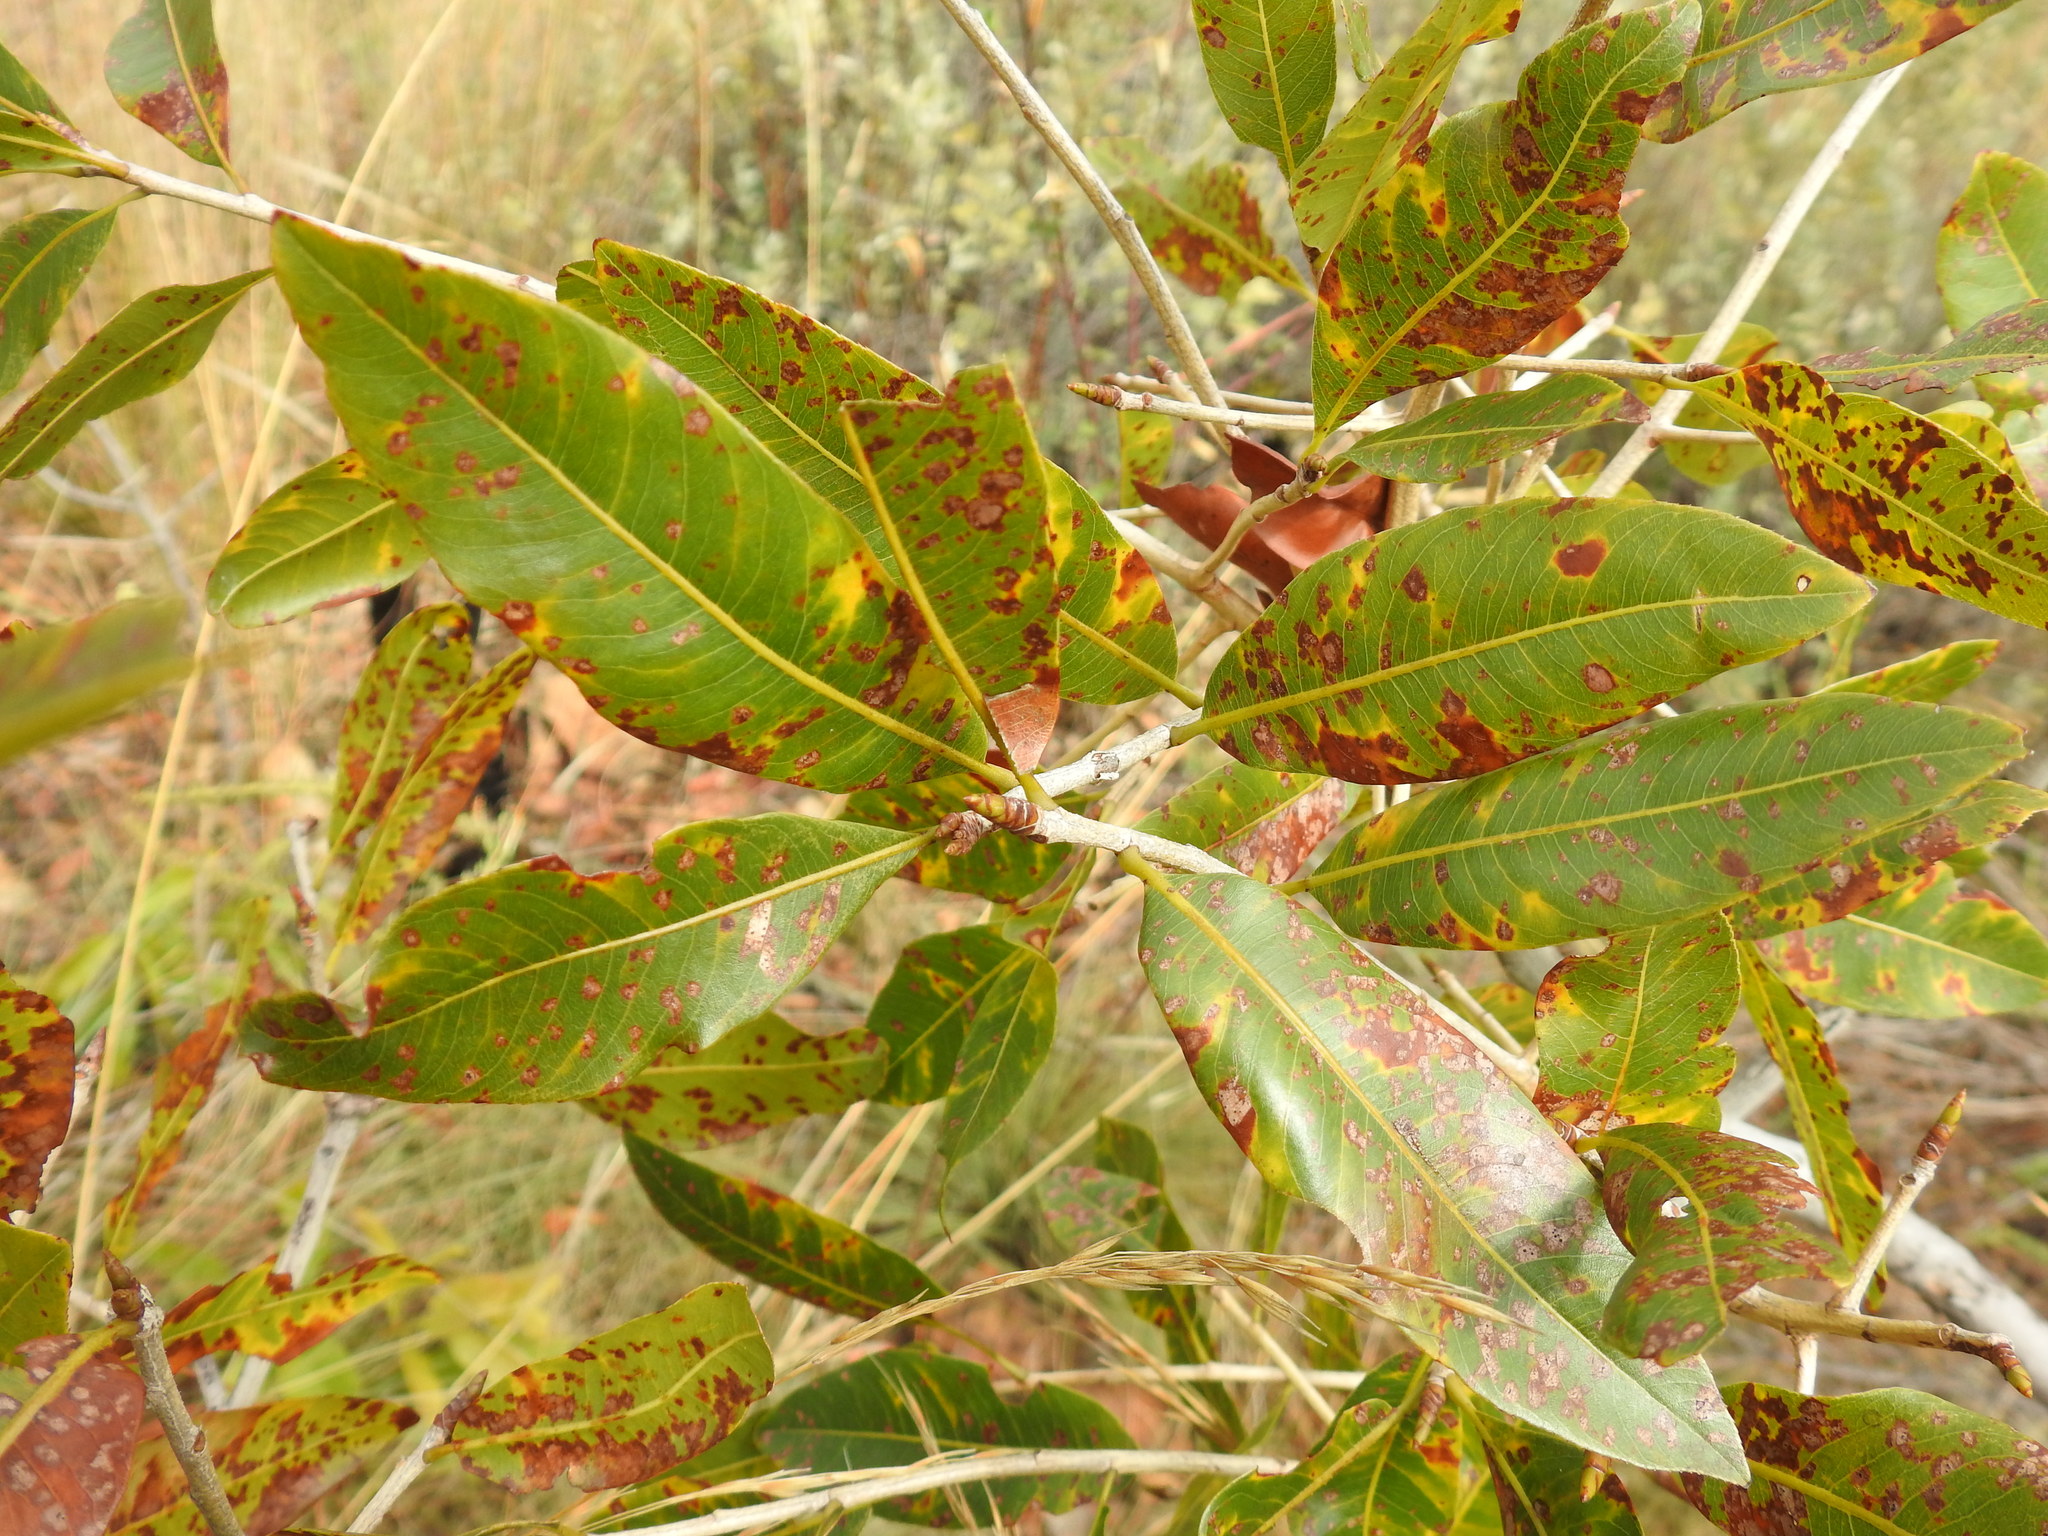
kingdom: Plantae
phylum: Tracheophyta
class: Magnoliopsida
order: Malpighiales
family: Ochnaceae
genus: Ochna
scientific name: Ochna pulchra
